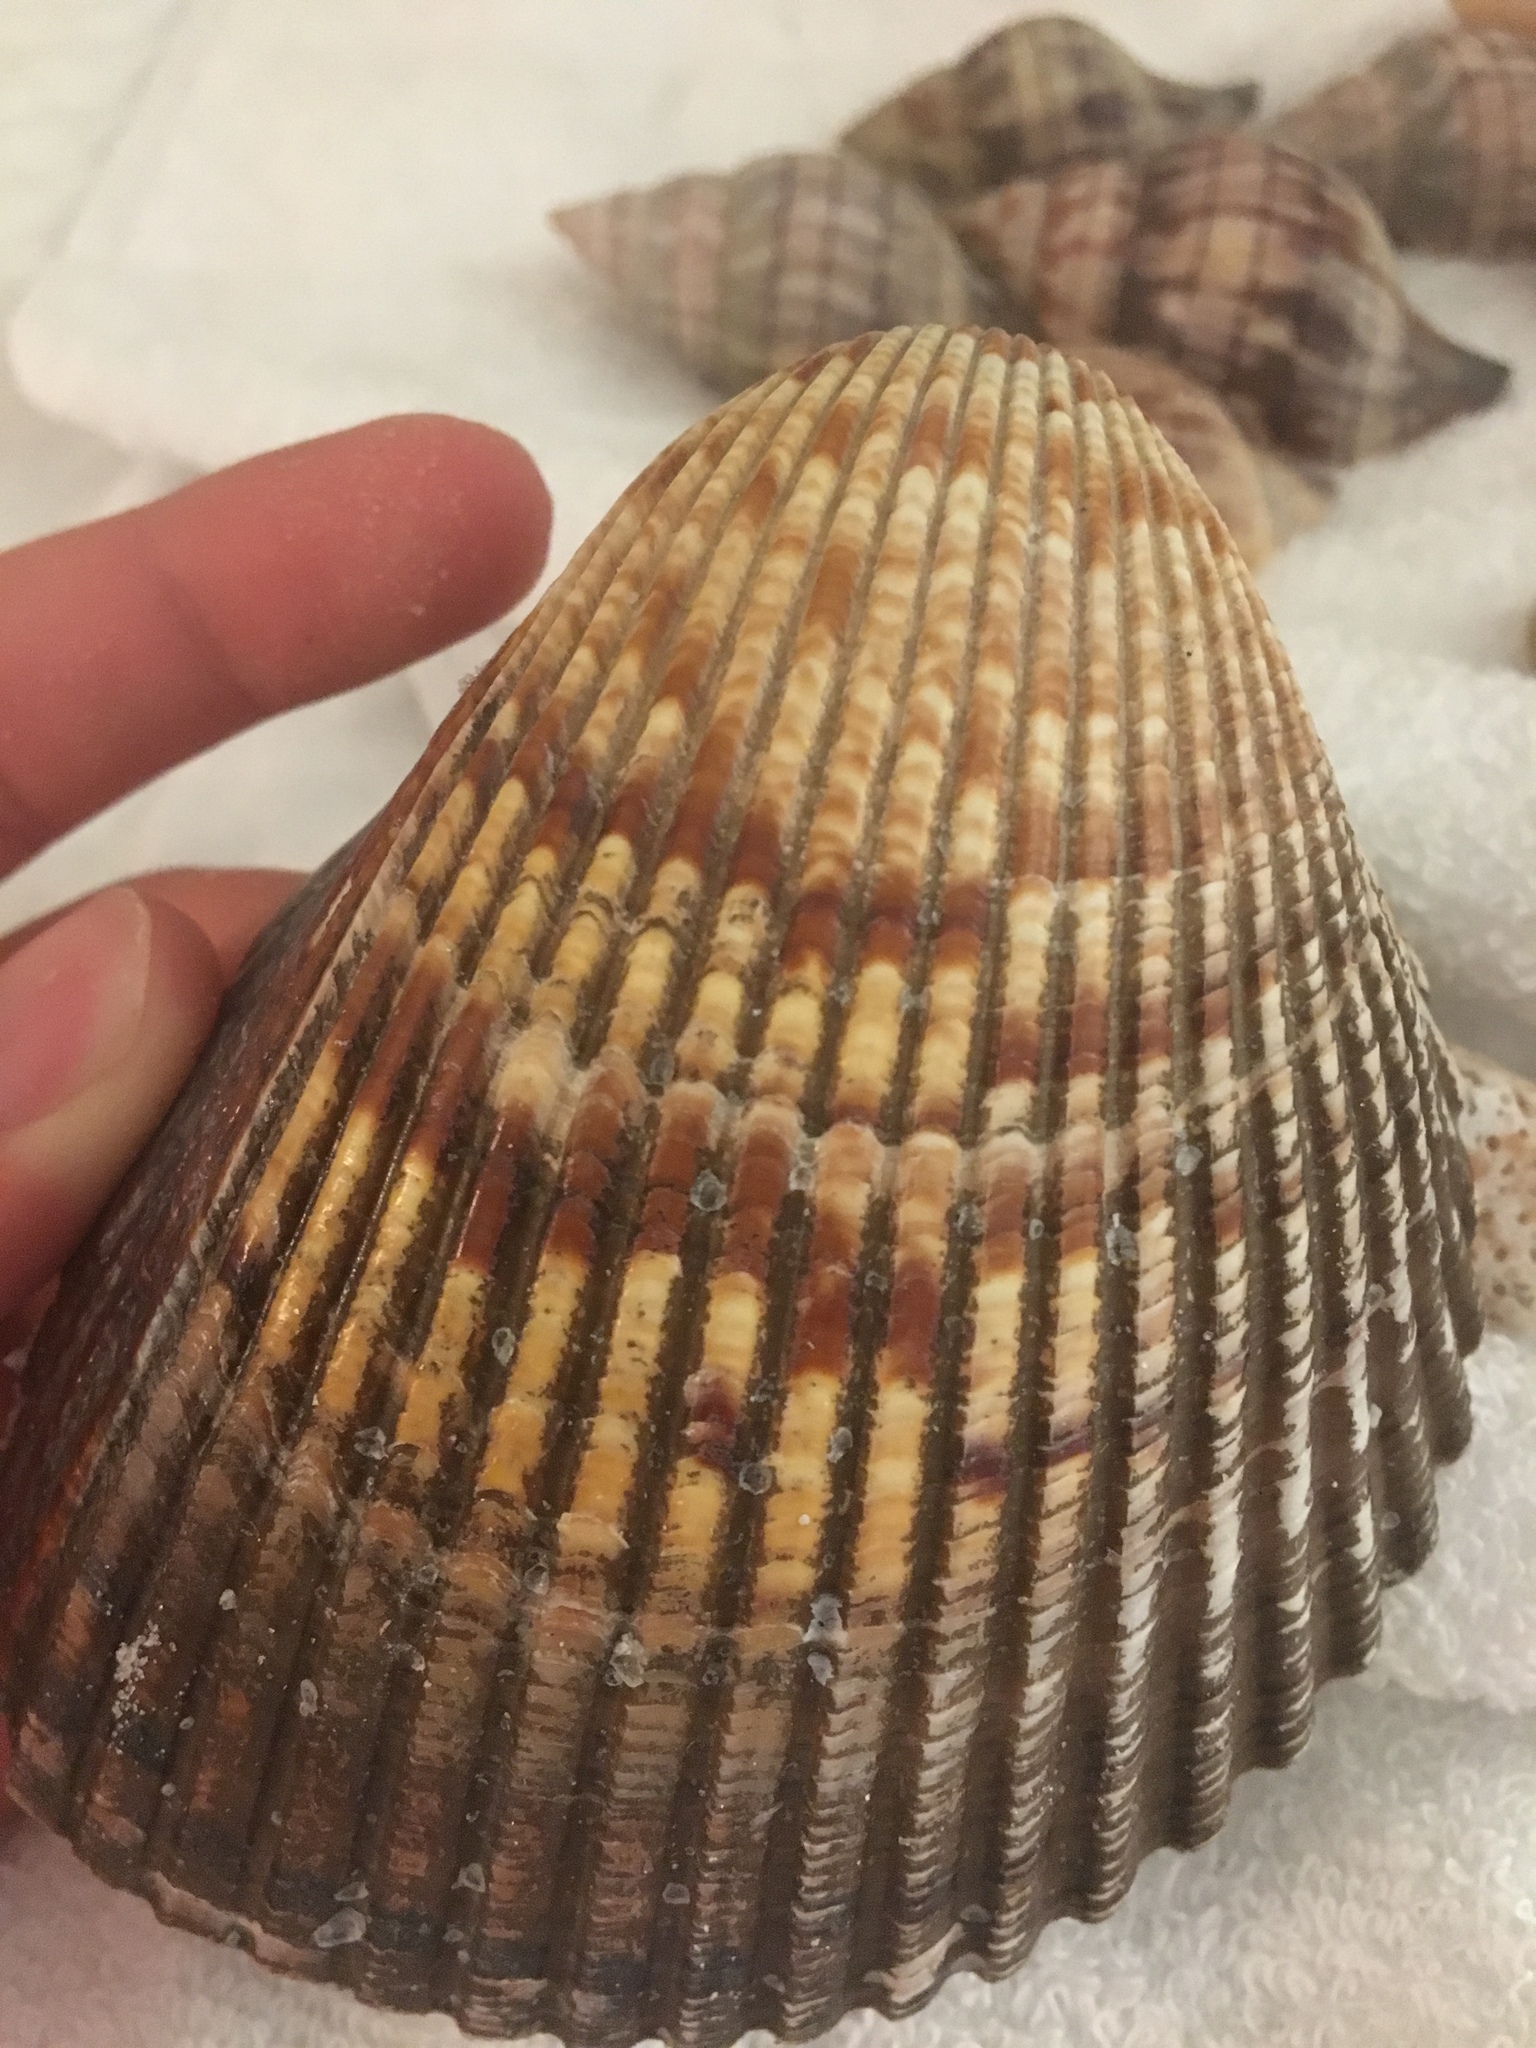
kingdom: Animalia
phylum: Mollusca
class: Bivalvia
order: Cardiida
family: Cardiidae
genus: Dinocardium
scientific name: Dinocardium robustum
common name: Atlantic giant cockle
